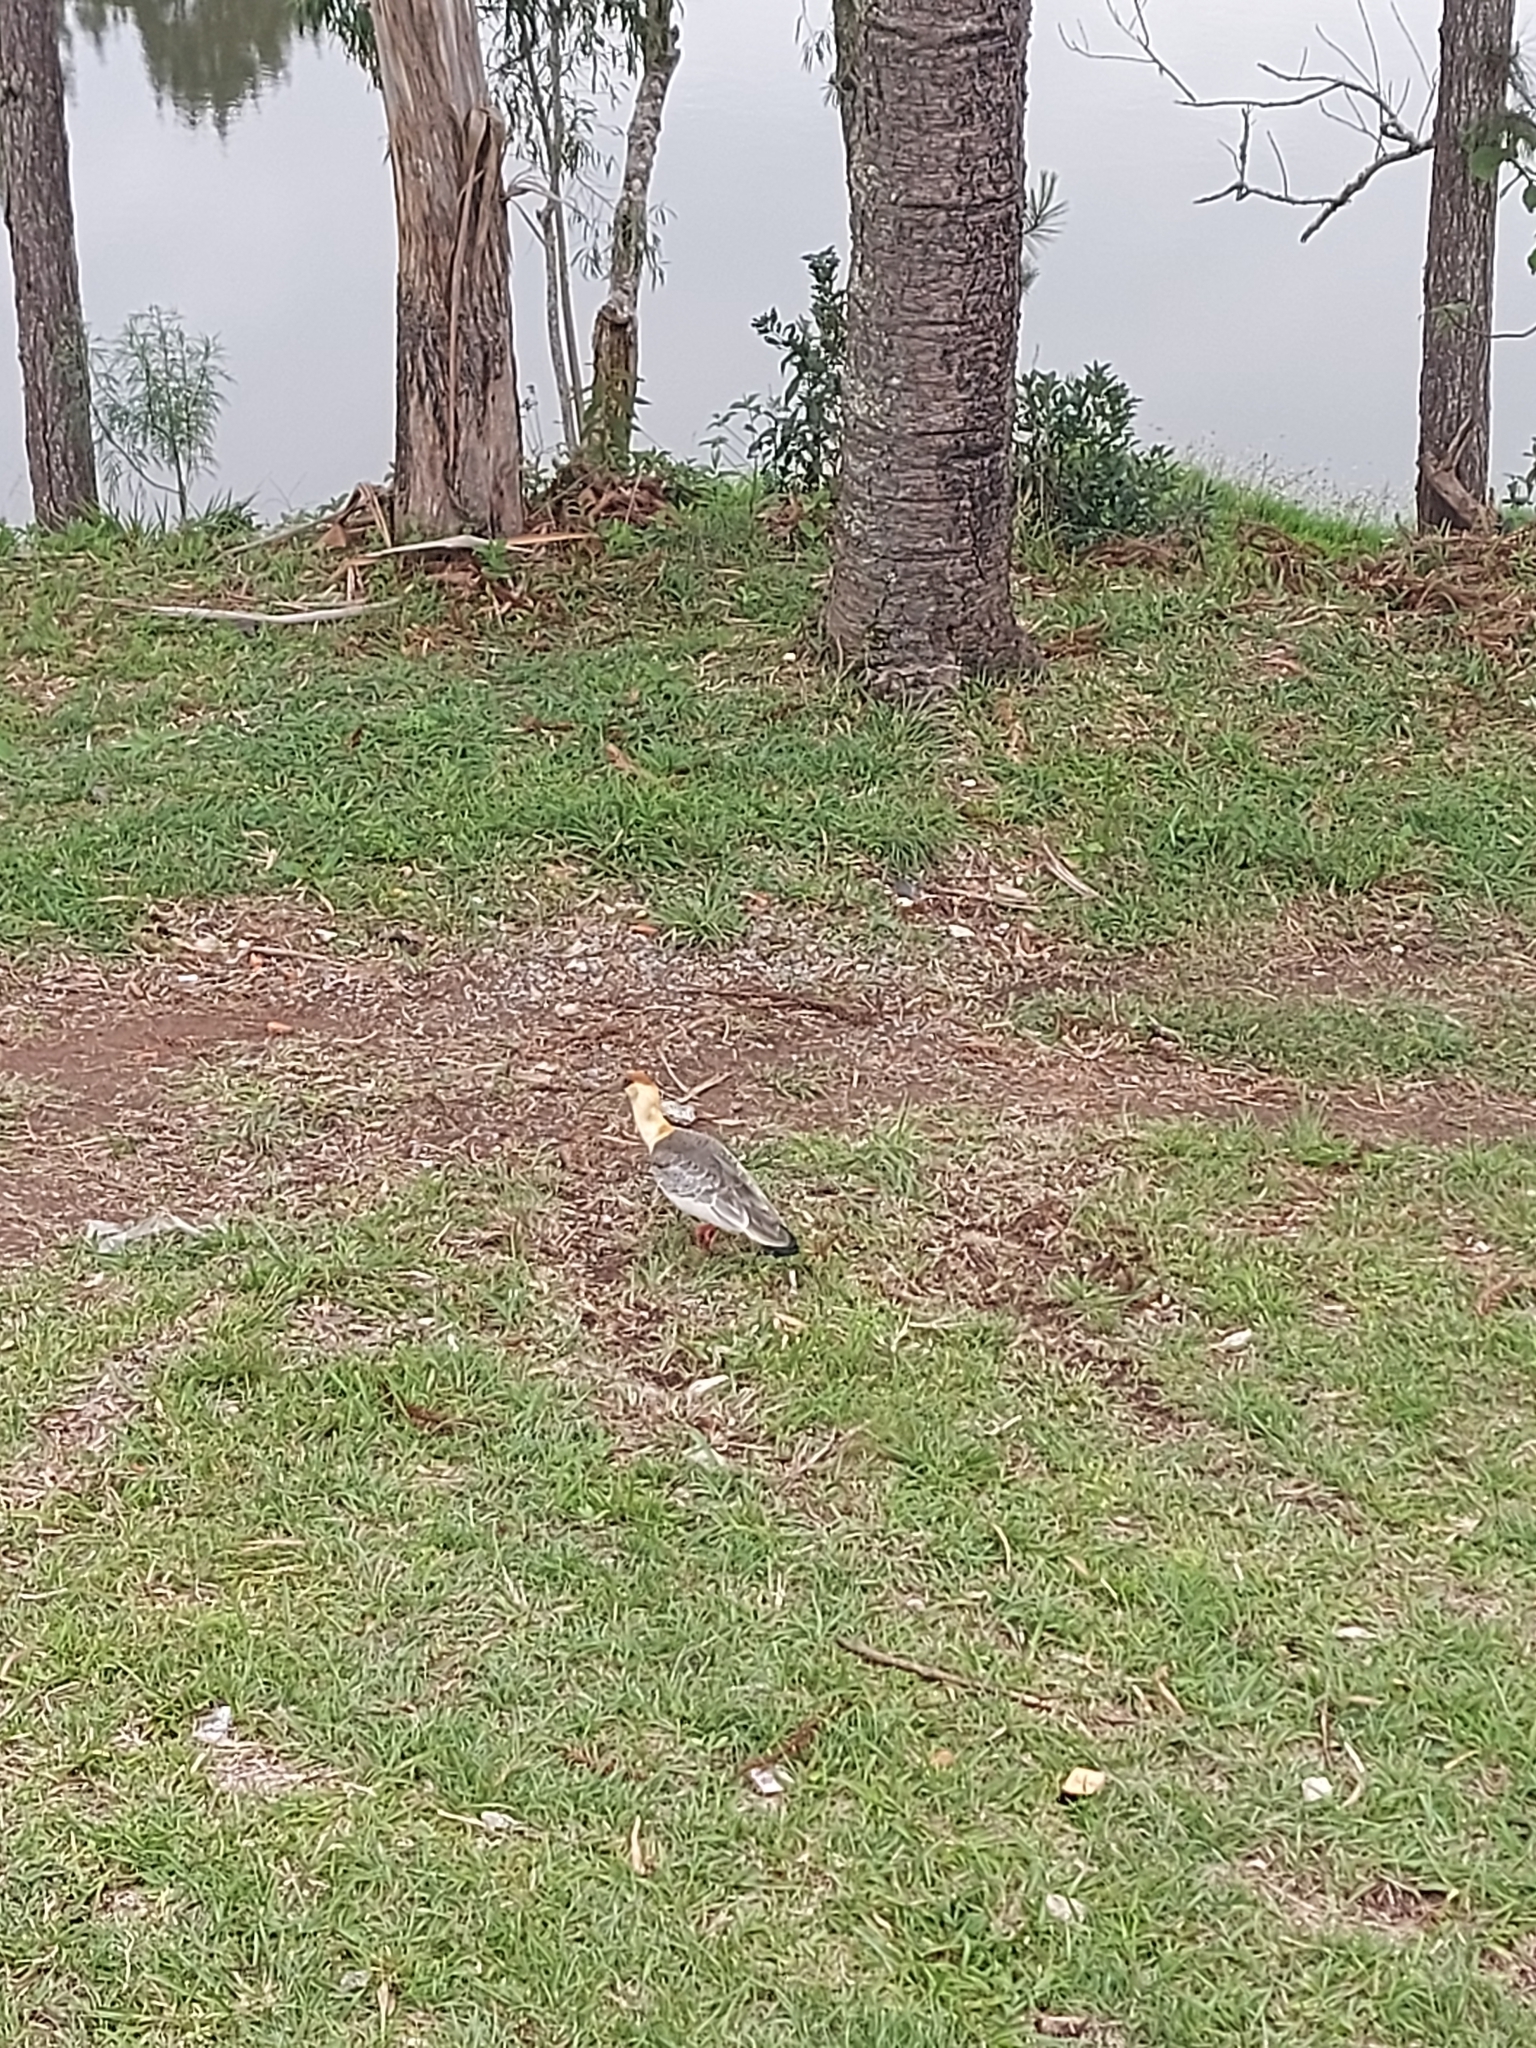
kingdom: Animalia
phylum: Chordata
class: Aves
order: Pelecaniformes
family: Threskiornithidae
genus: Theristicus
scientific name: Theristicus caudatus
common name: Buff-necked ibis
